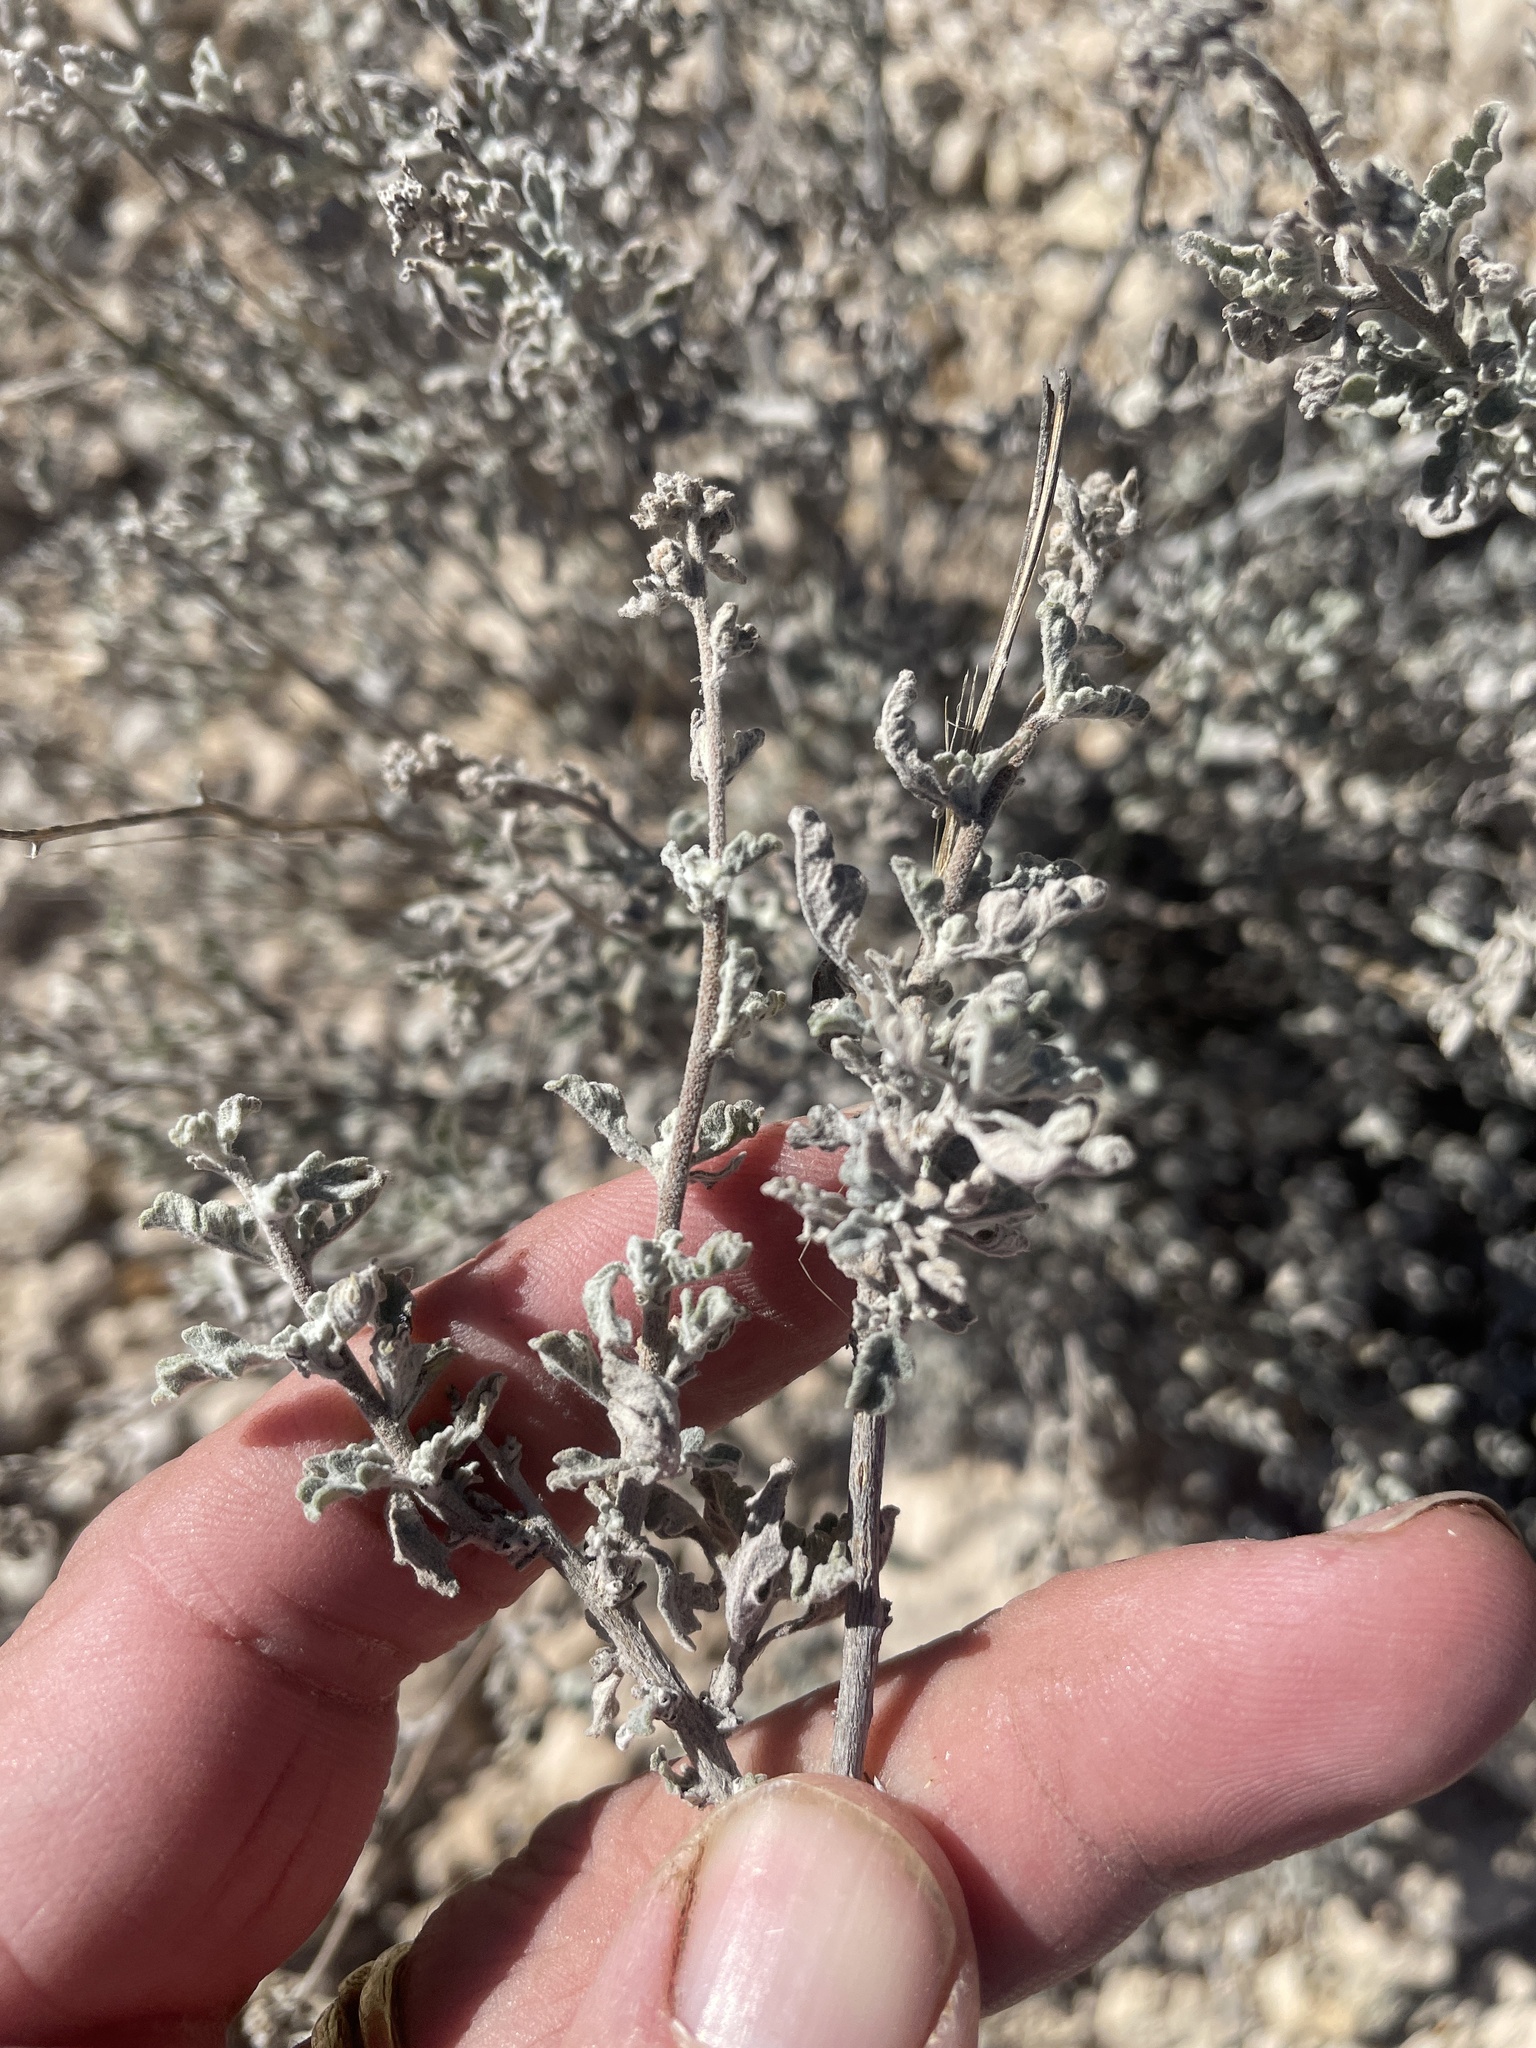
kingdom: Plantae
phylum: Tracheophyta
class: Magnoliopsida
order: Asterales
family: Asteraceae
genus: Parthenium
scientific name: Parthenium incanum
